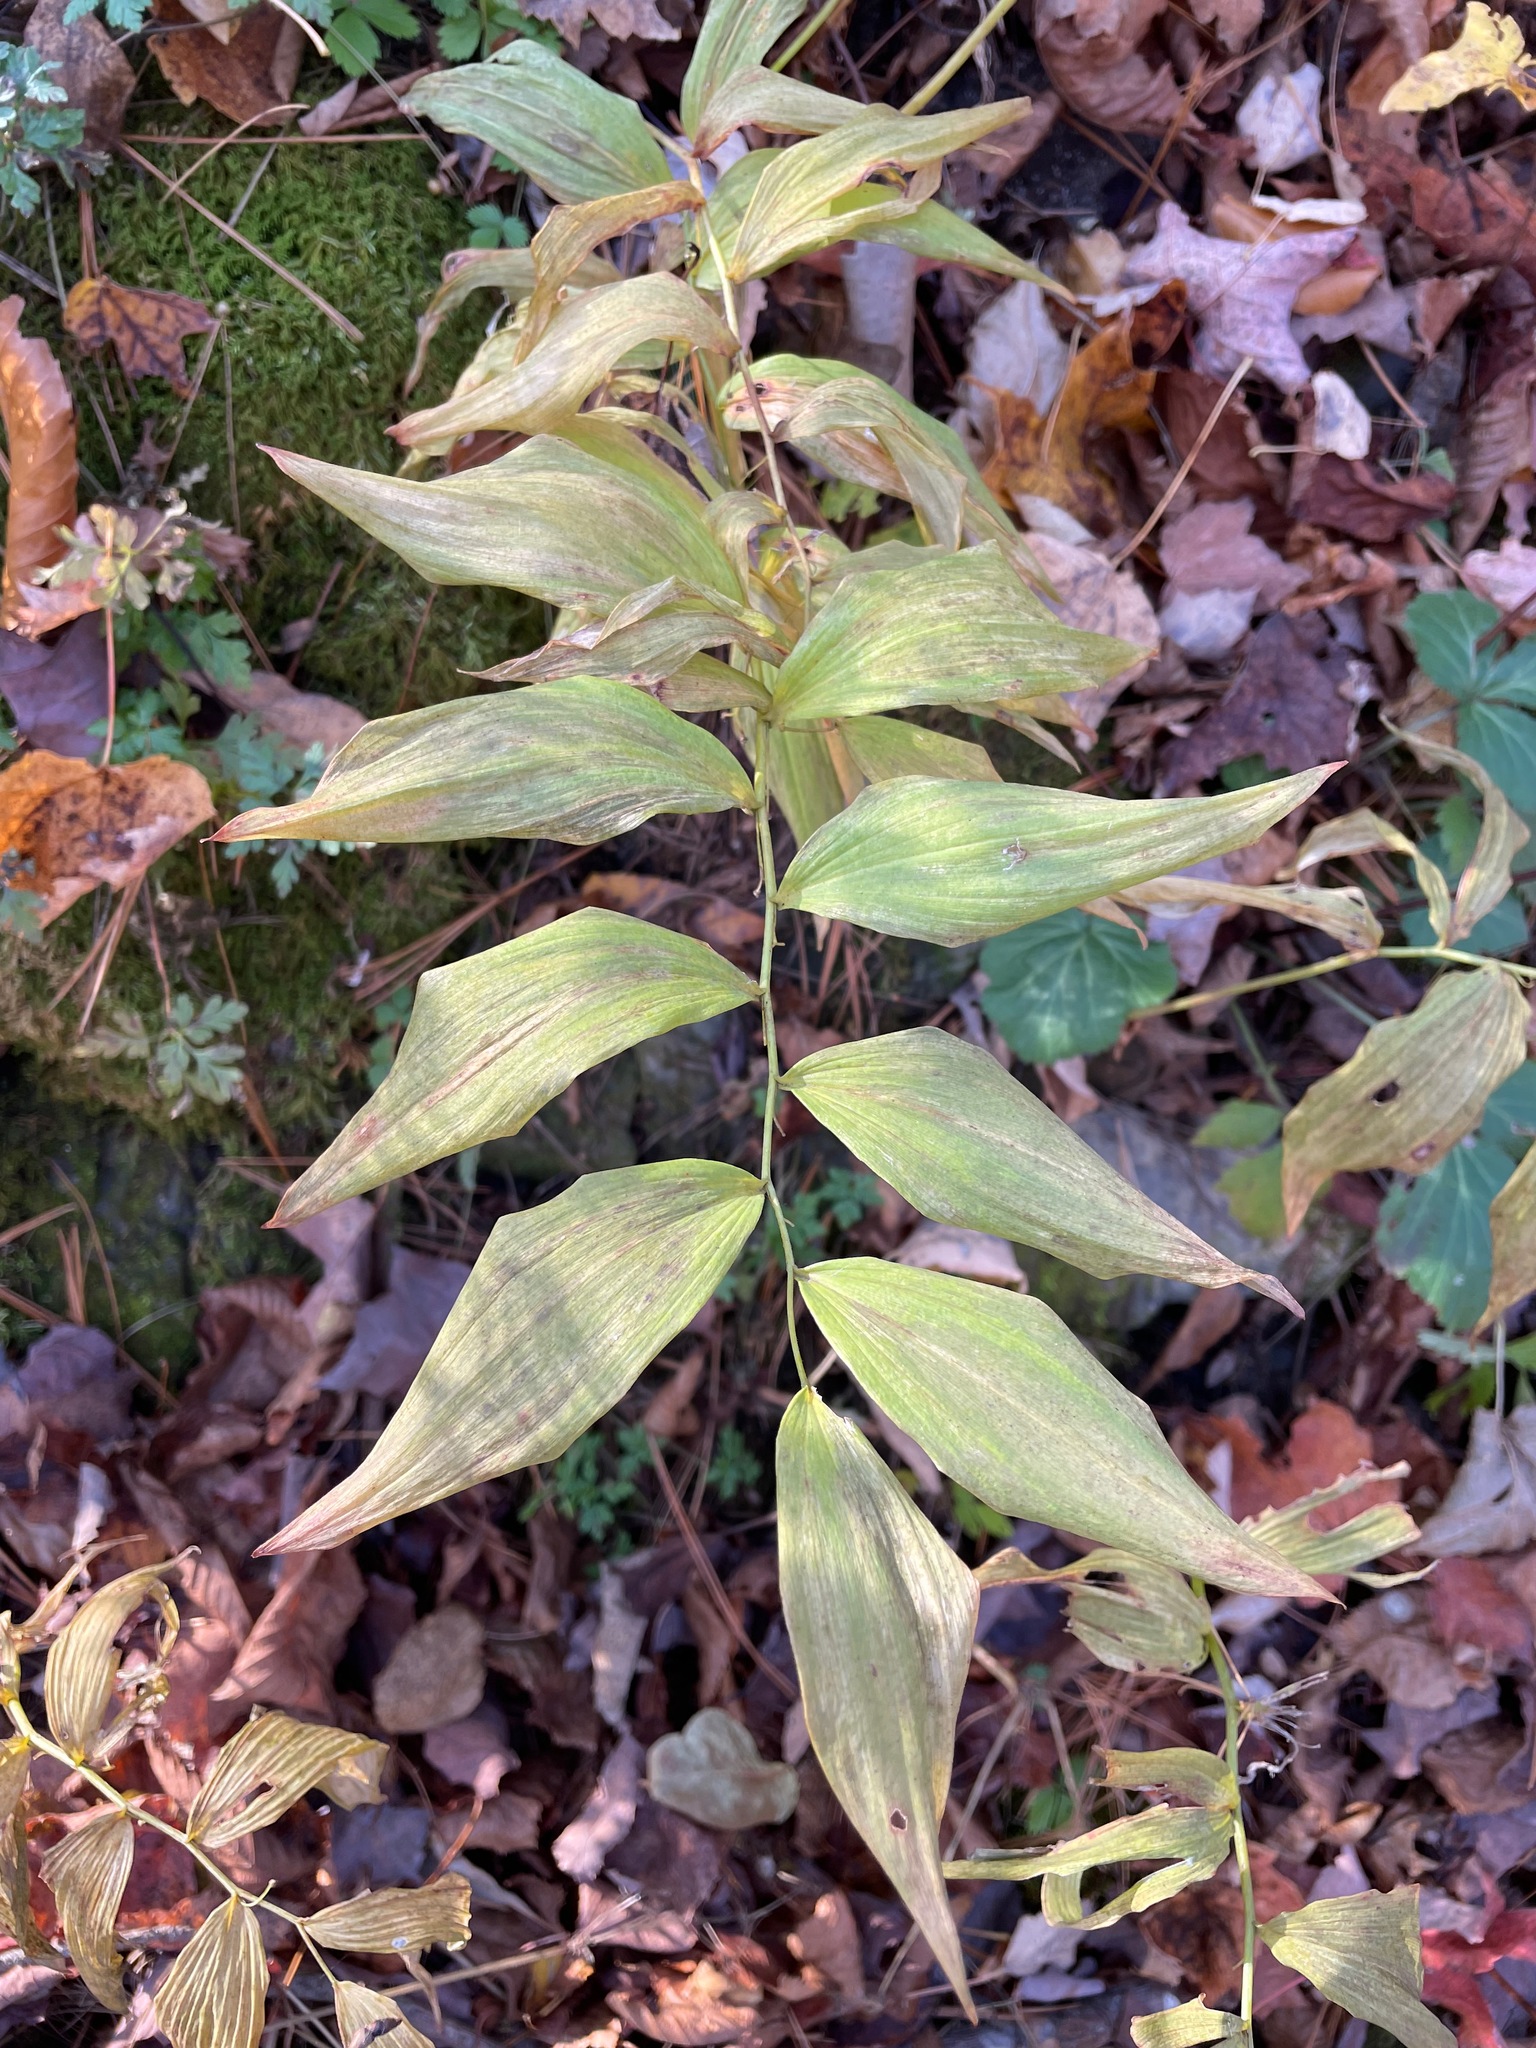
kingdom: Plantae
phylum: Tracheophyta
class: Liliopsida
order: Asparagales
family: Asparagaceae
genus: Polygonatum
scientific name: Polygonatum pubescens
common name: Downy solomon's seal
